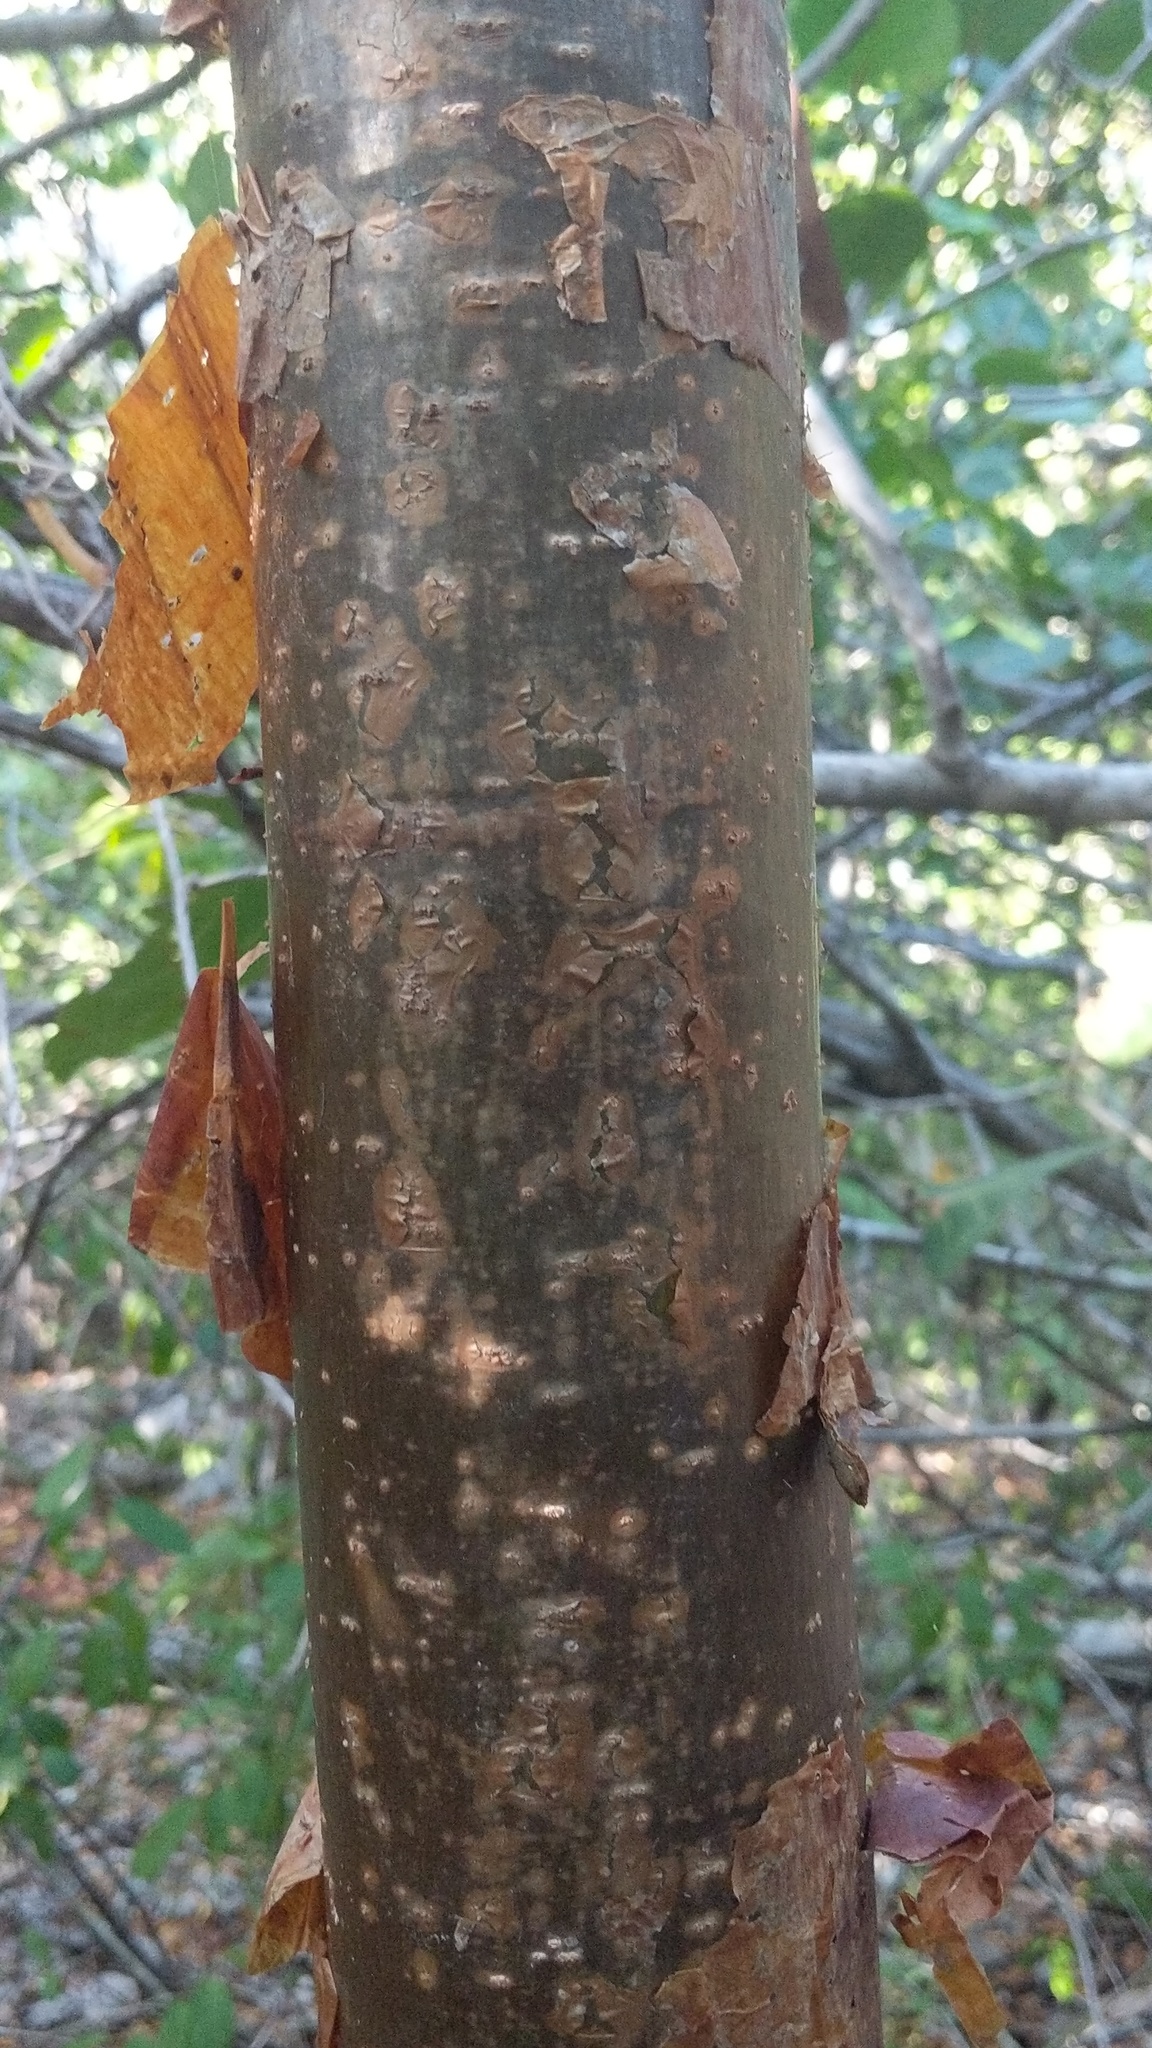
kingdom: Plantae
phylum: Tracheophyta
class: Magnoliopsida
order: Sapindales
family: Burseraceae
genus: Bursera
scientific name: Bursera simaruba
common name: Turpentine tree
